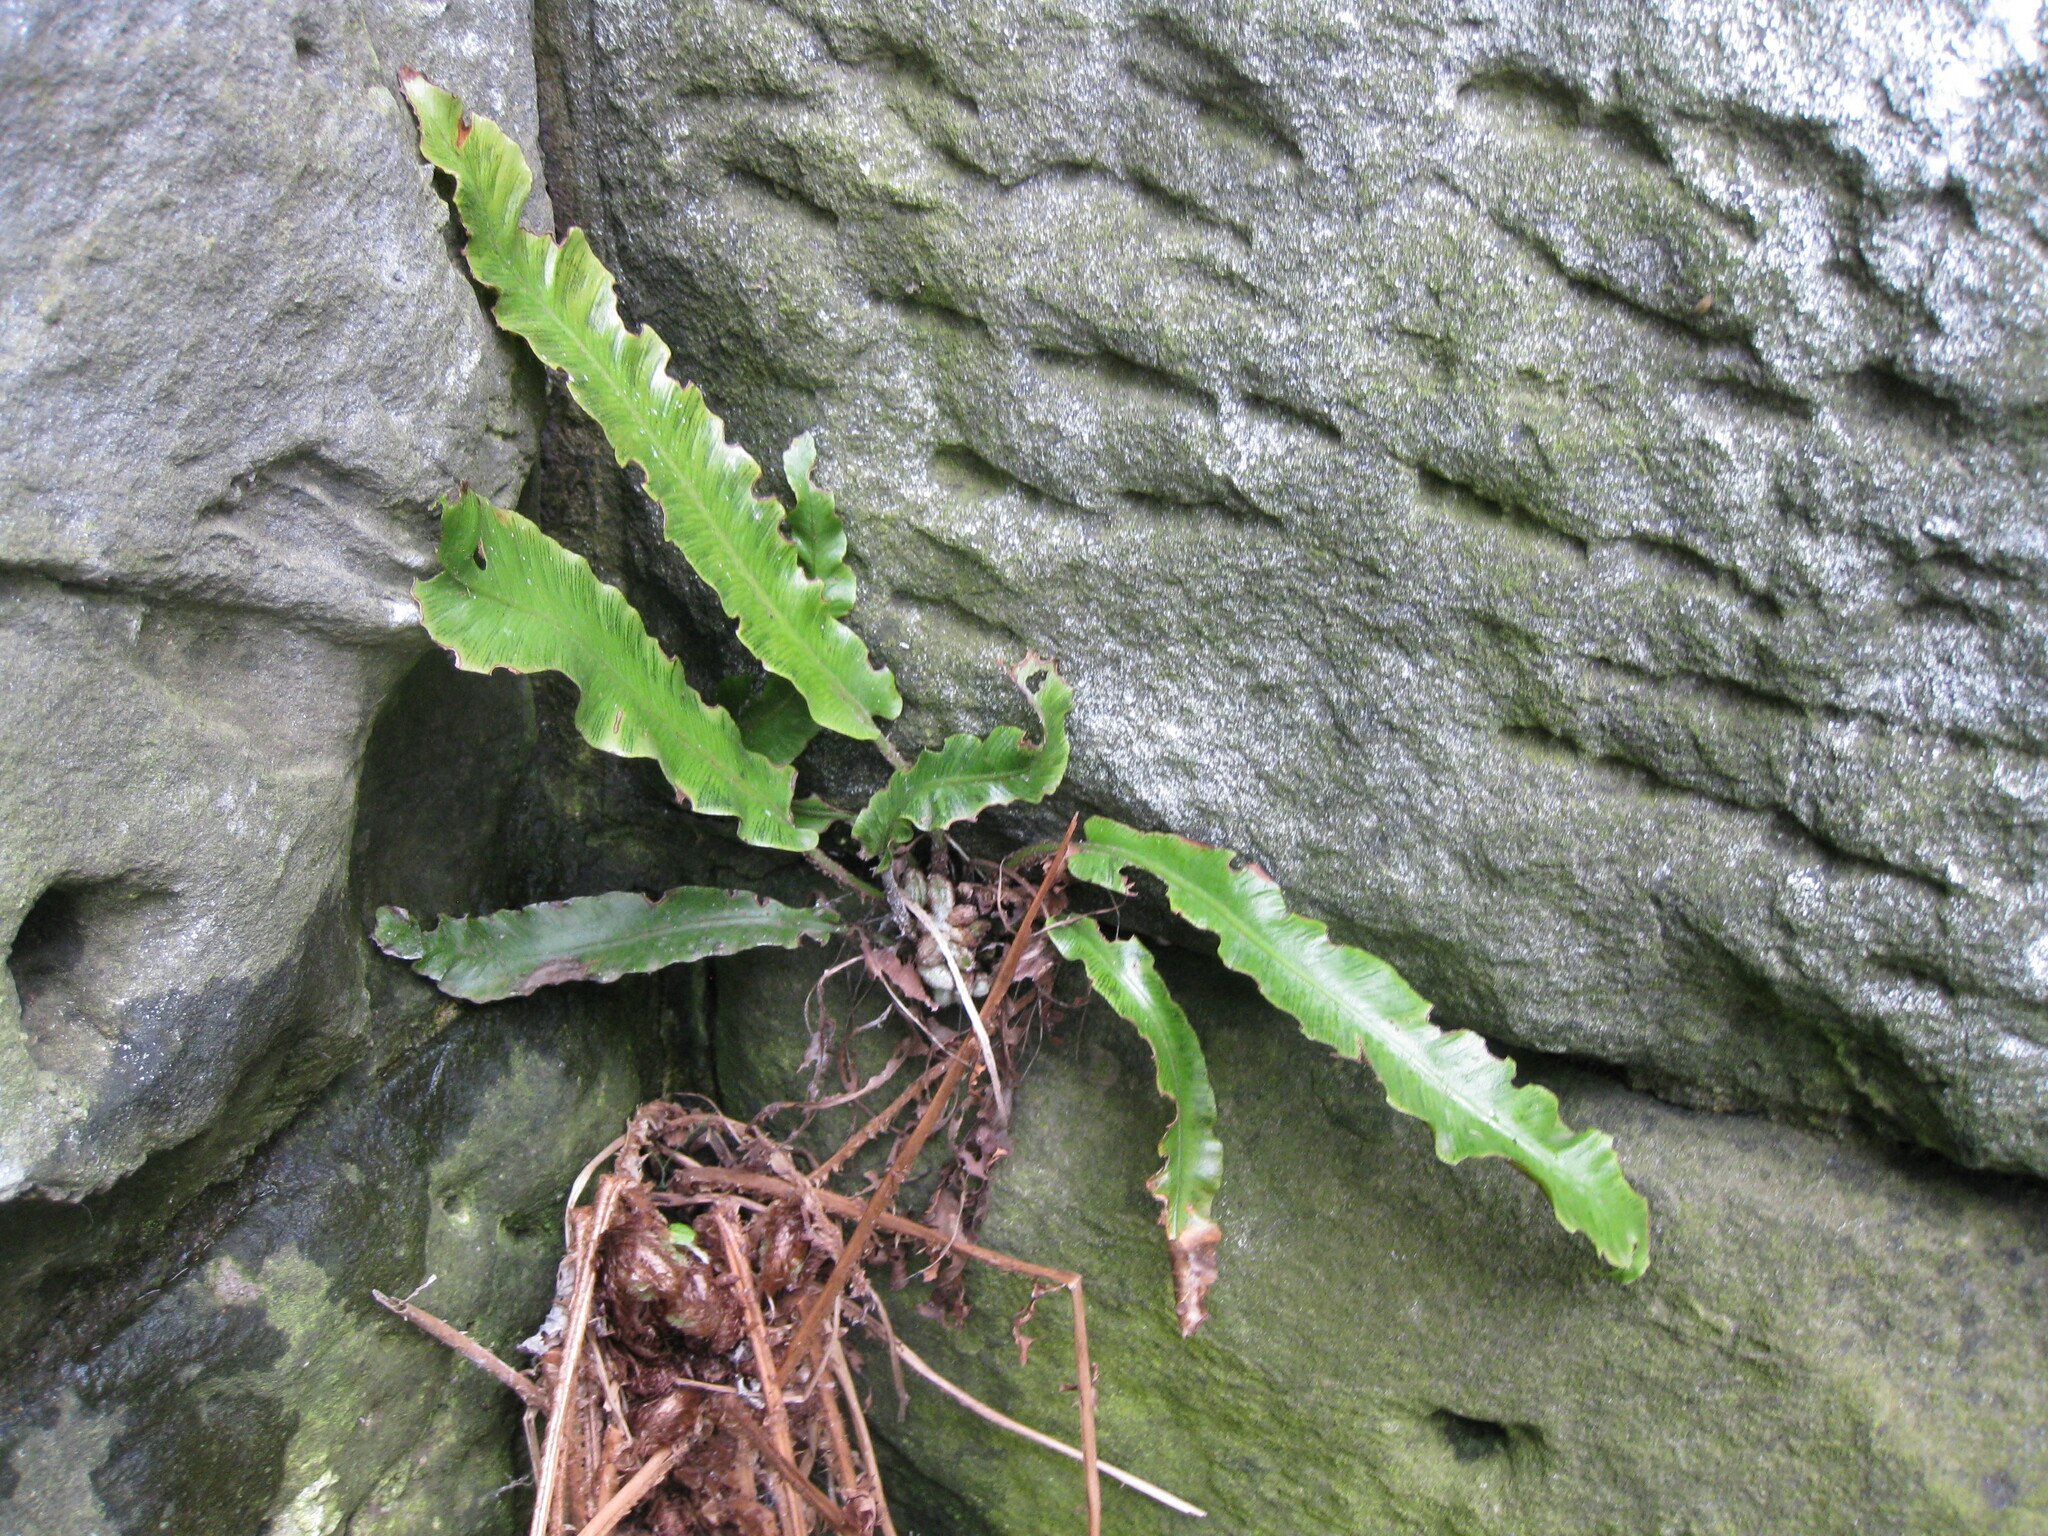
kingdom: Plantae
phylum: Tracheophyta
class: Polypodiopsida
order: Polypodiales
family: Aspleniaceae
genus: Asplenium
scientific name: Asplenium scolopendrium
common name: Hart's-tongue fern
